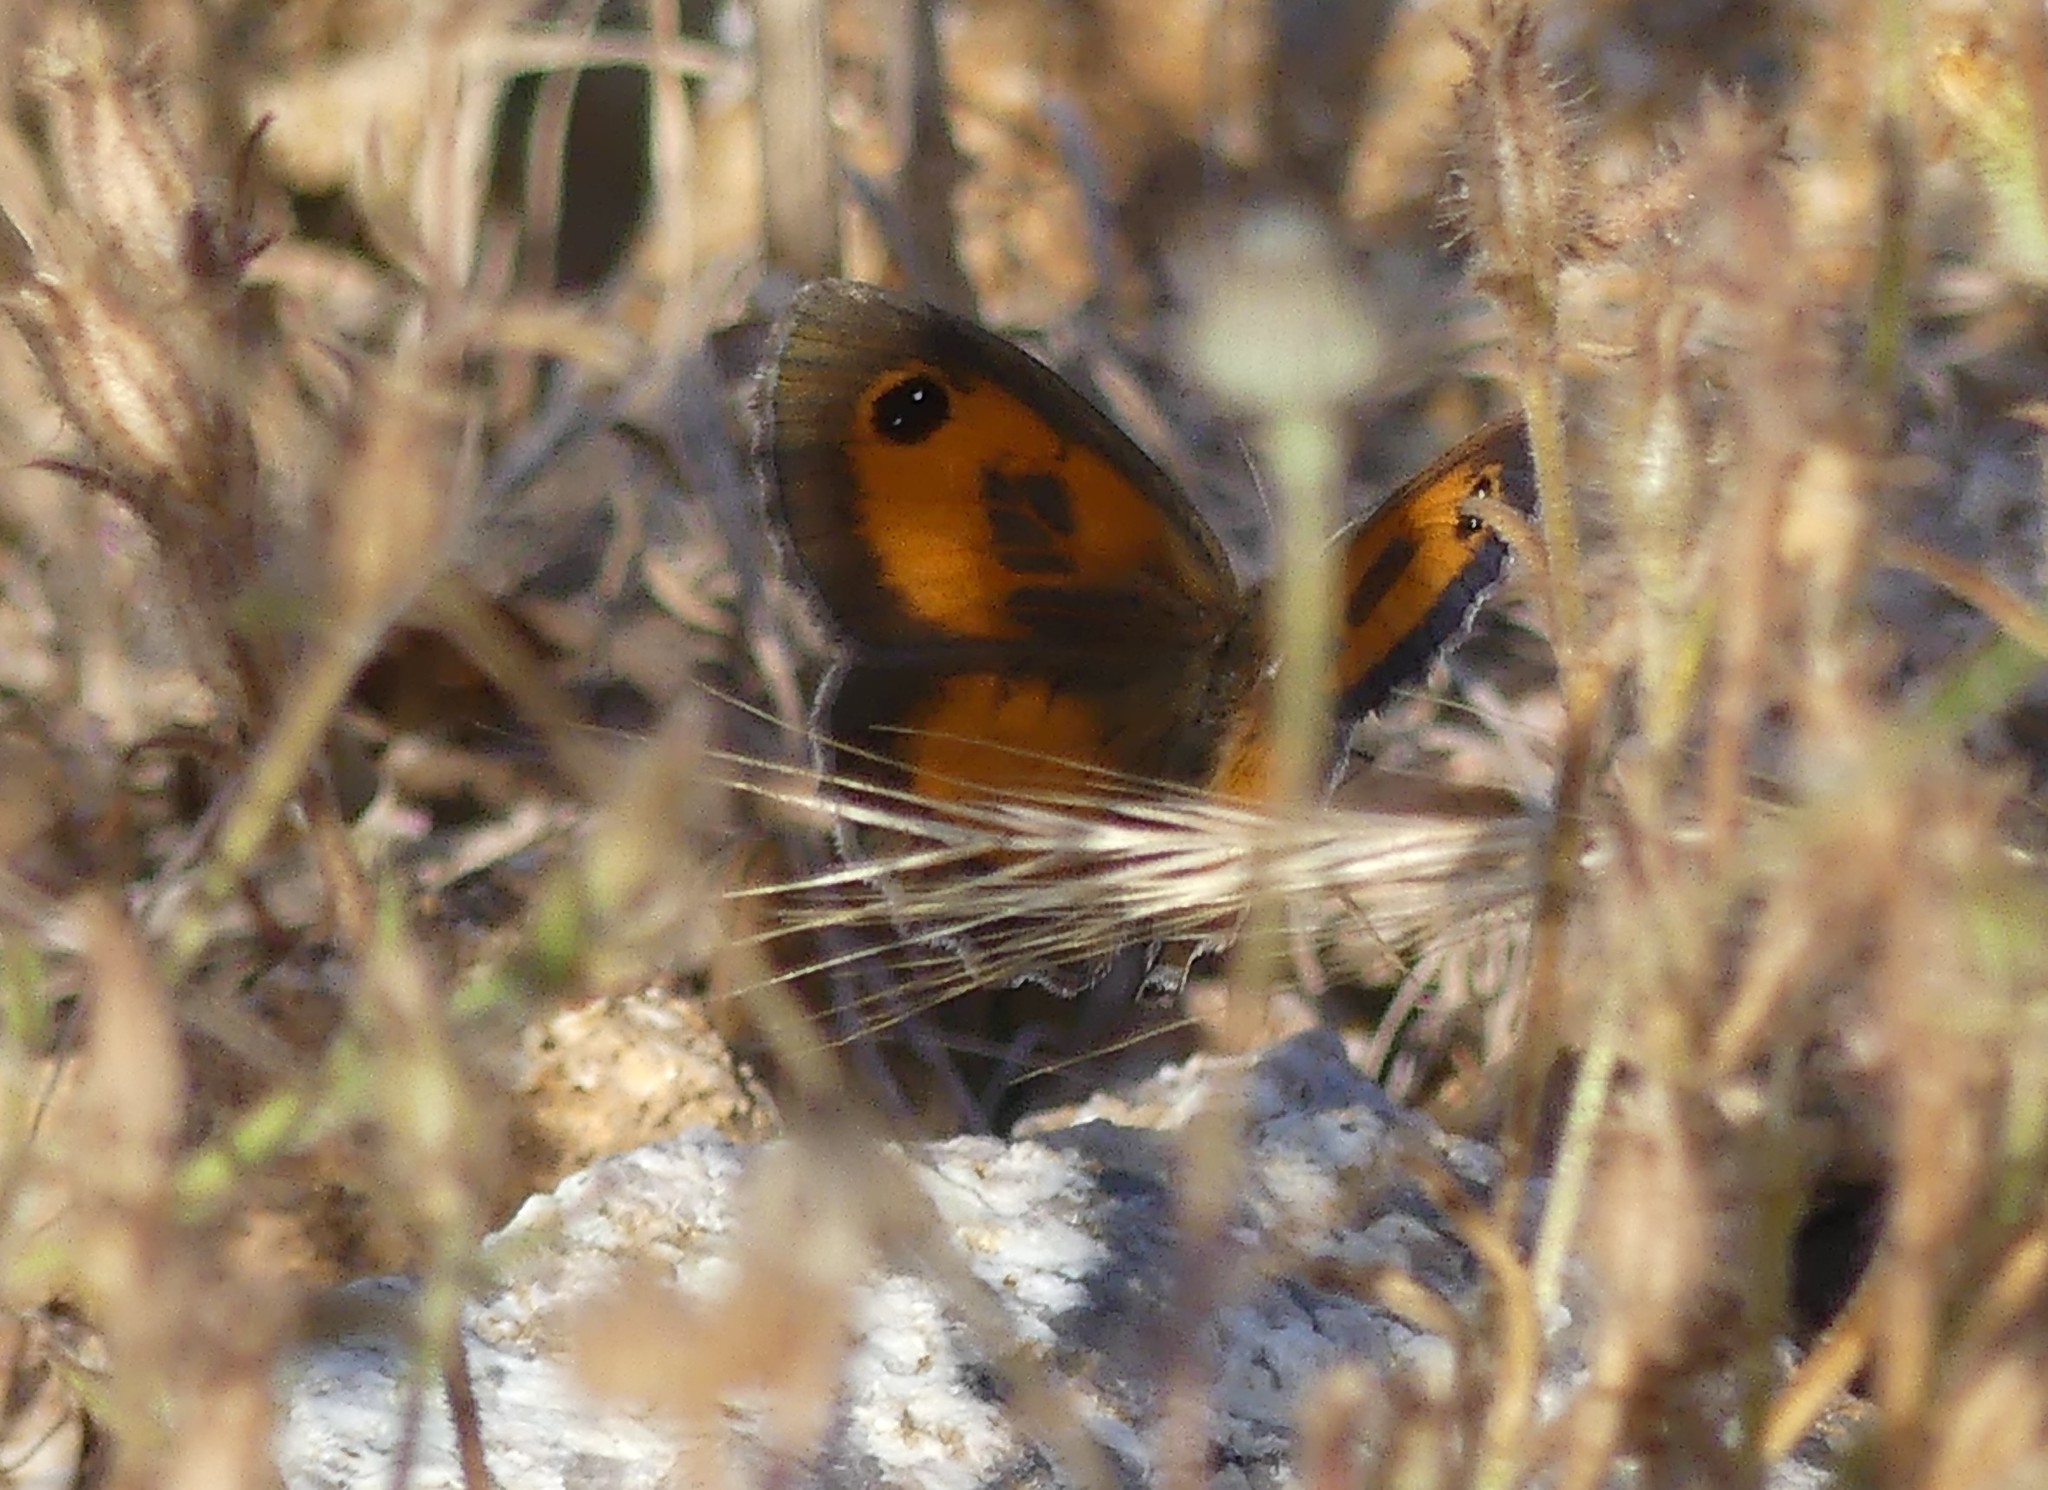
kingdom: Animalia
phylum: Arthropoda
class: Insecta
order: Lepidoptera
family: Nymphalidae
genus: Pyronia
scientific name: Pyronia cecilia
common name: Southern gatekeeper
